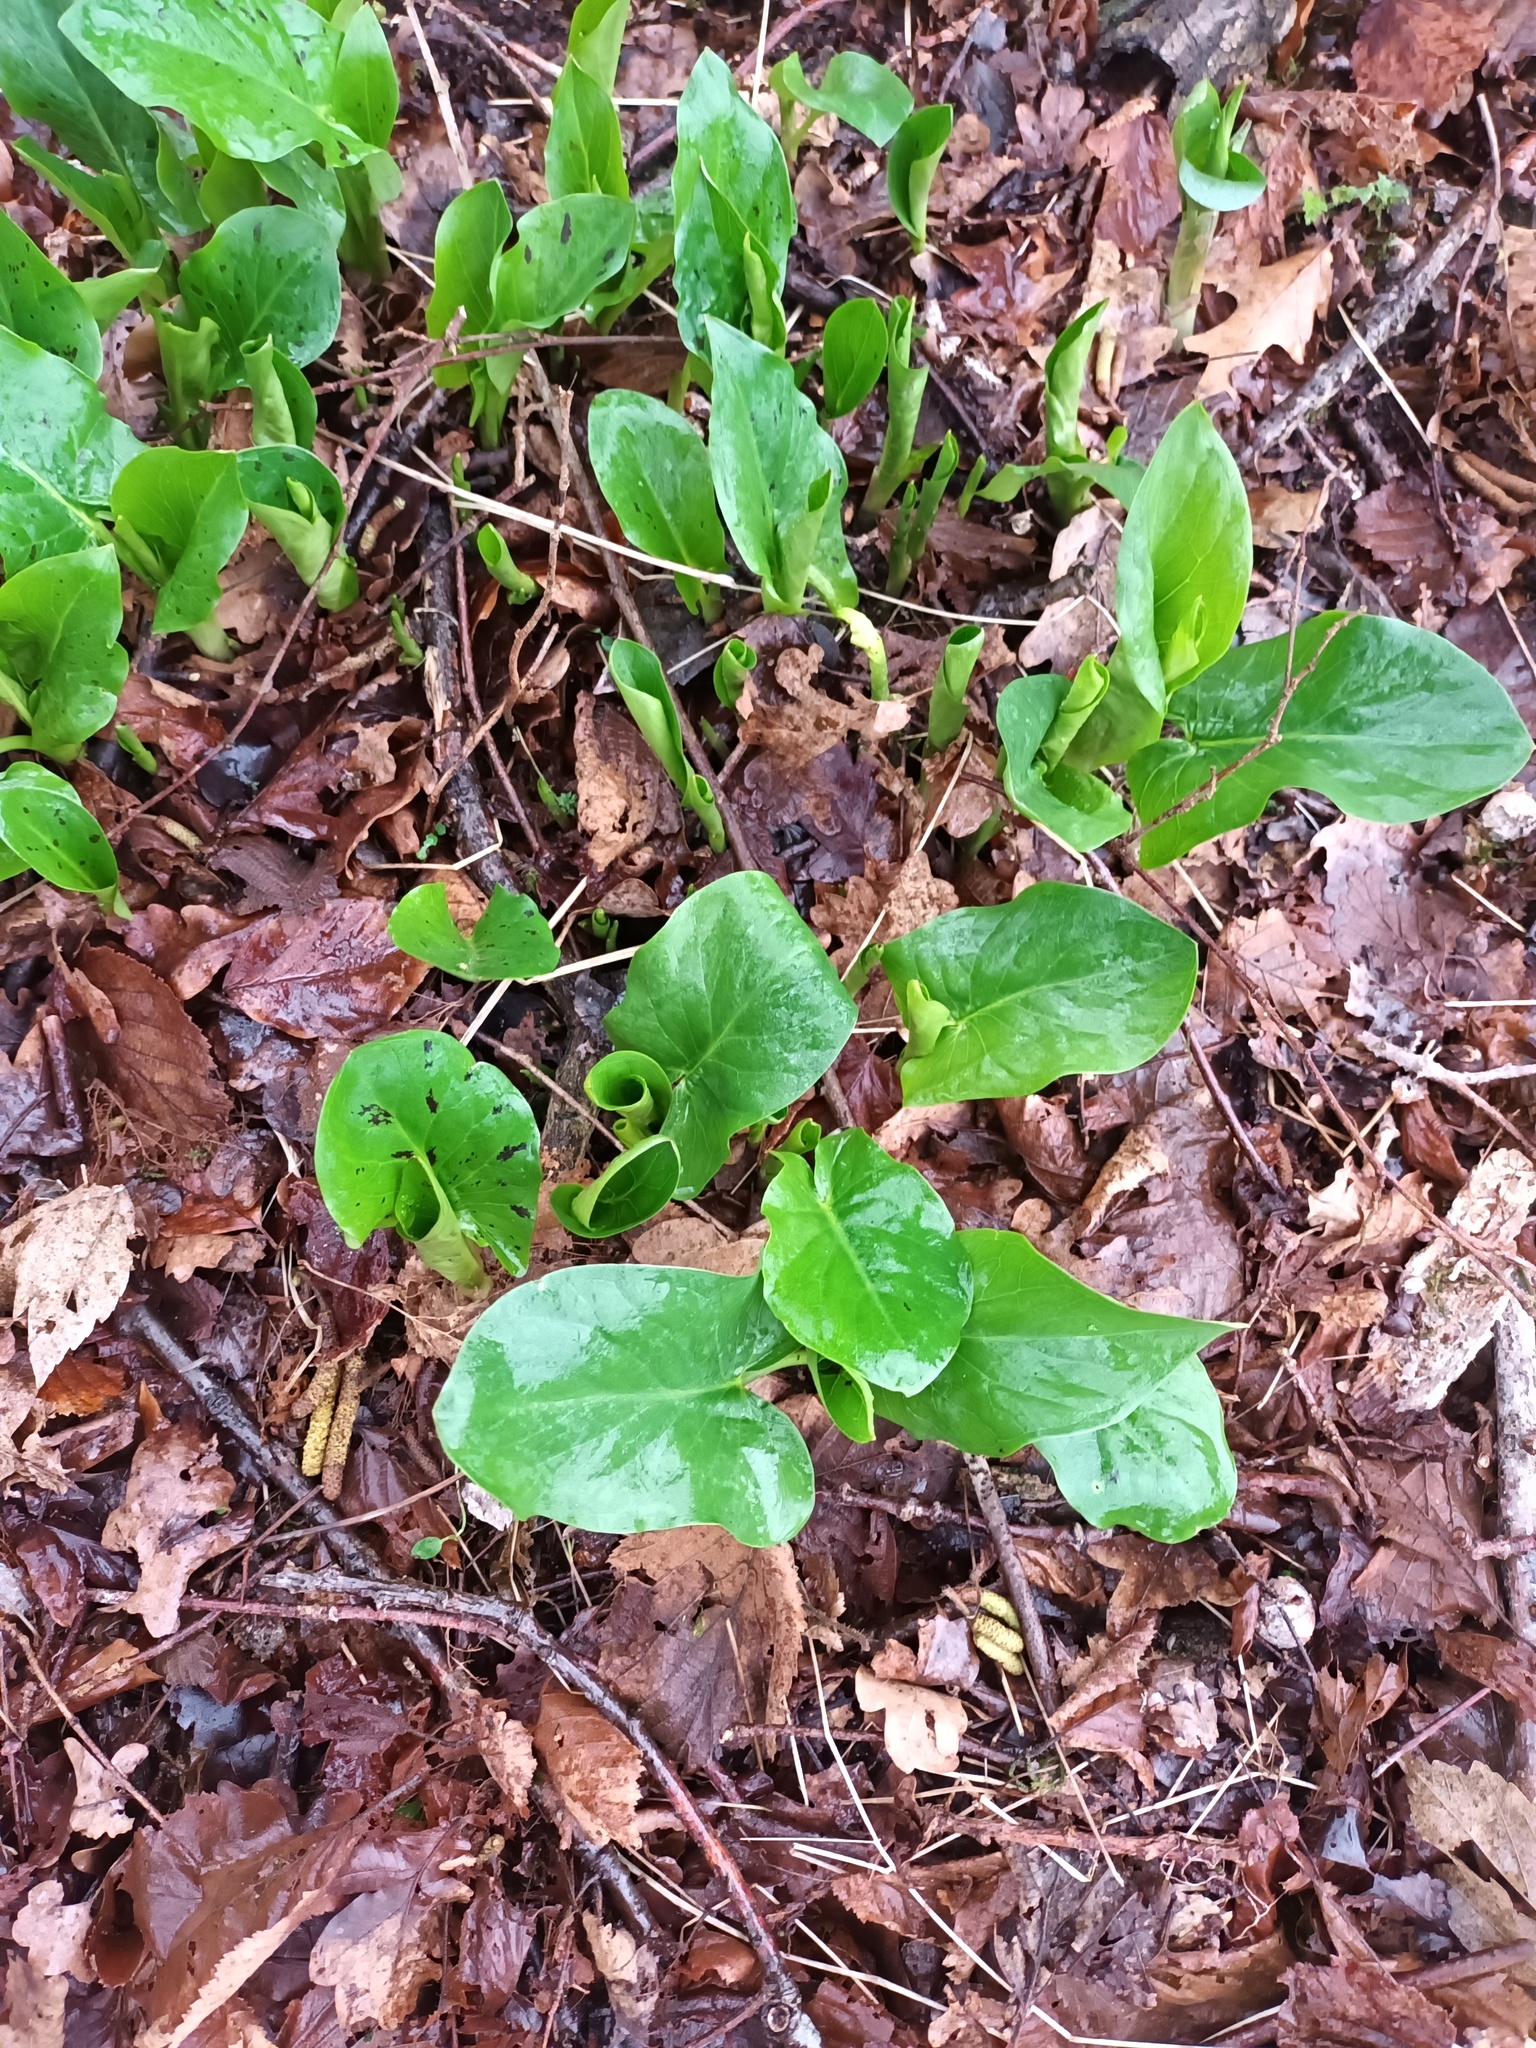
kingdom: Plantae
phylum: Tracheophyta
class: Liliopsida
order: Alismatales
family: Araceae
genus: Arum
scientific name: Arum maculatum
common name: Lords-and-ladies
